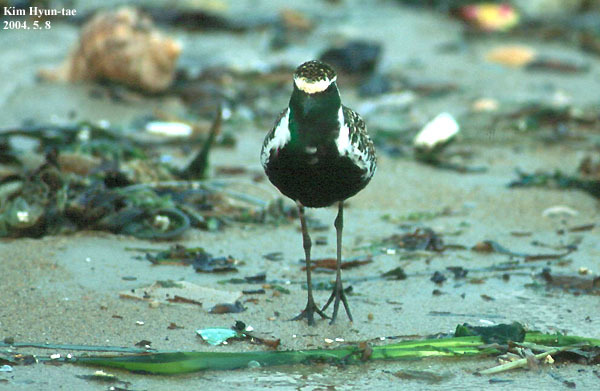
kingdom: Animalia
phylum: Chordata
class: Aves
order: Charadriiformes
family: Charadriidae
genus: Pluvialis
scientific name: Pluvialis fulva
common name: Pacific golden plover
